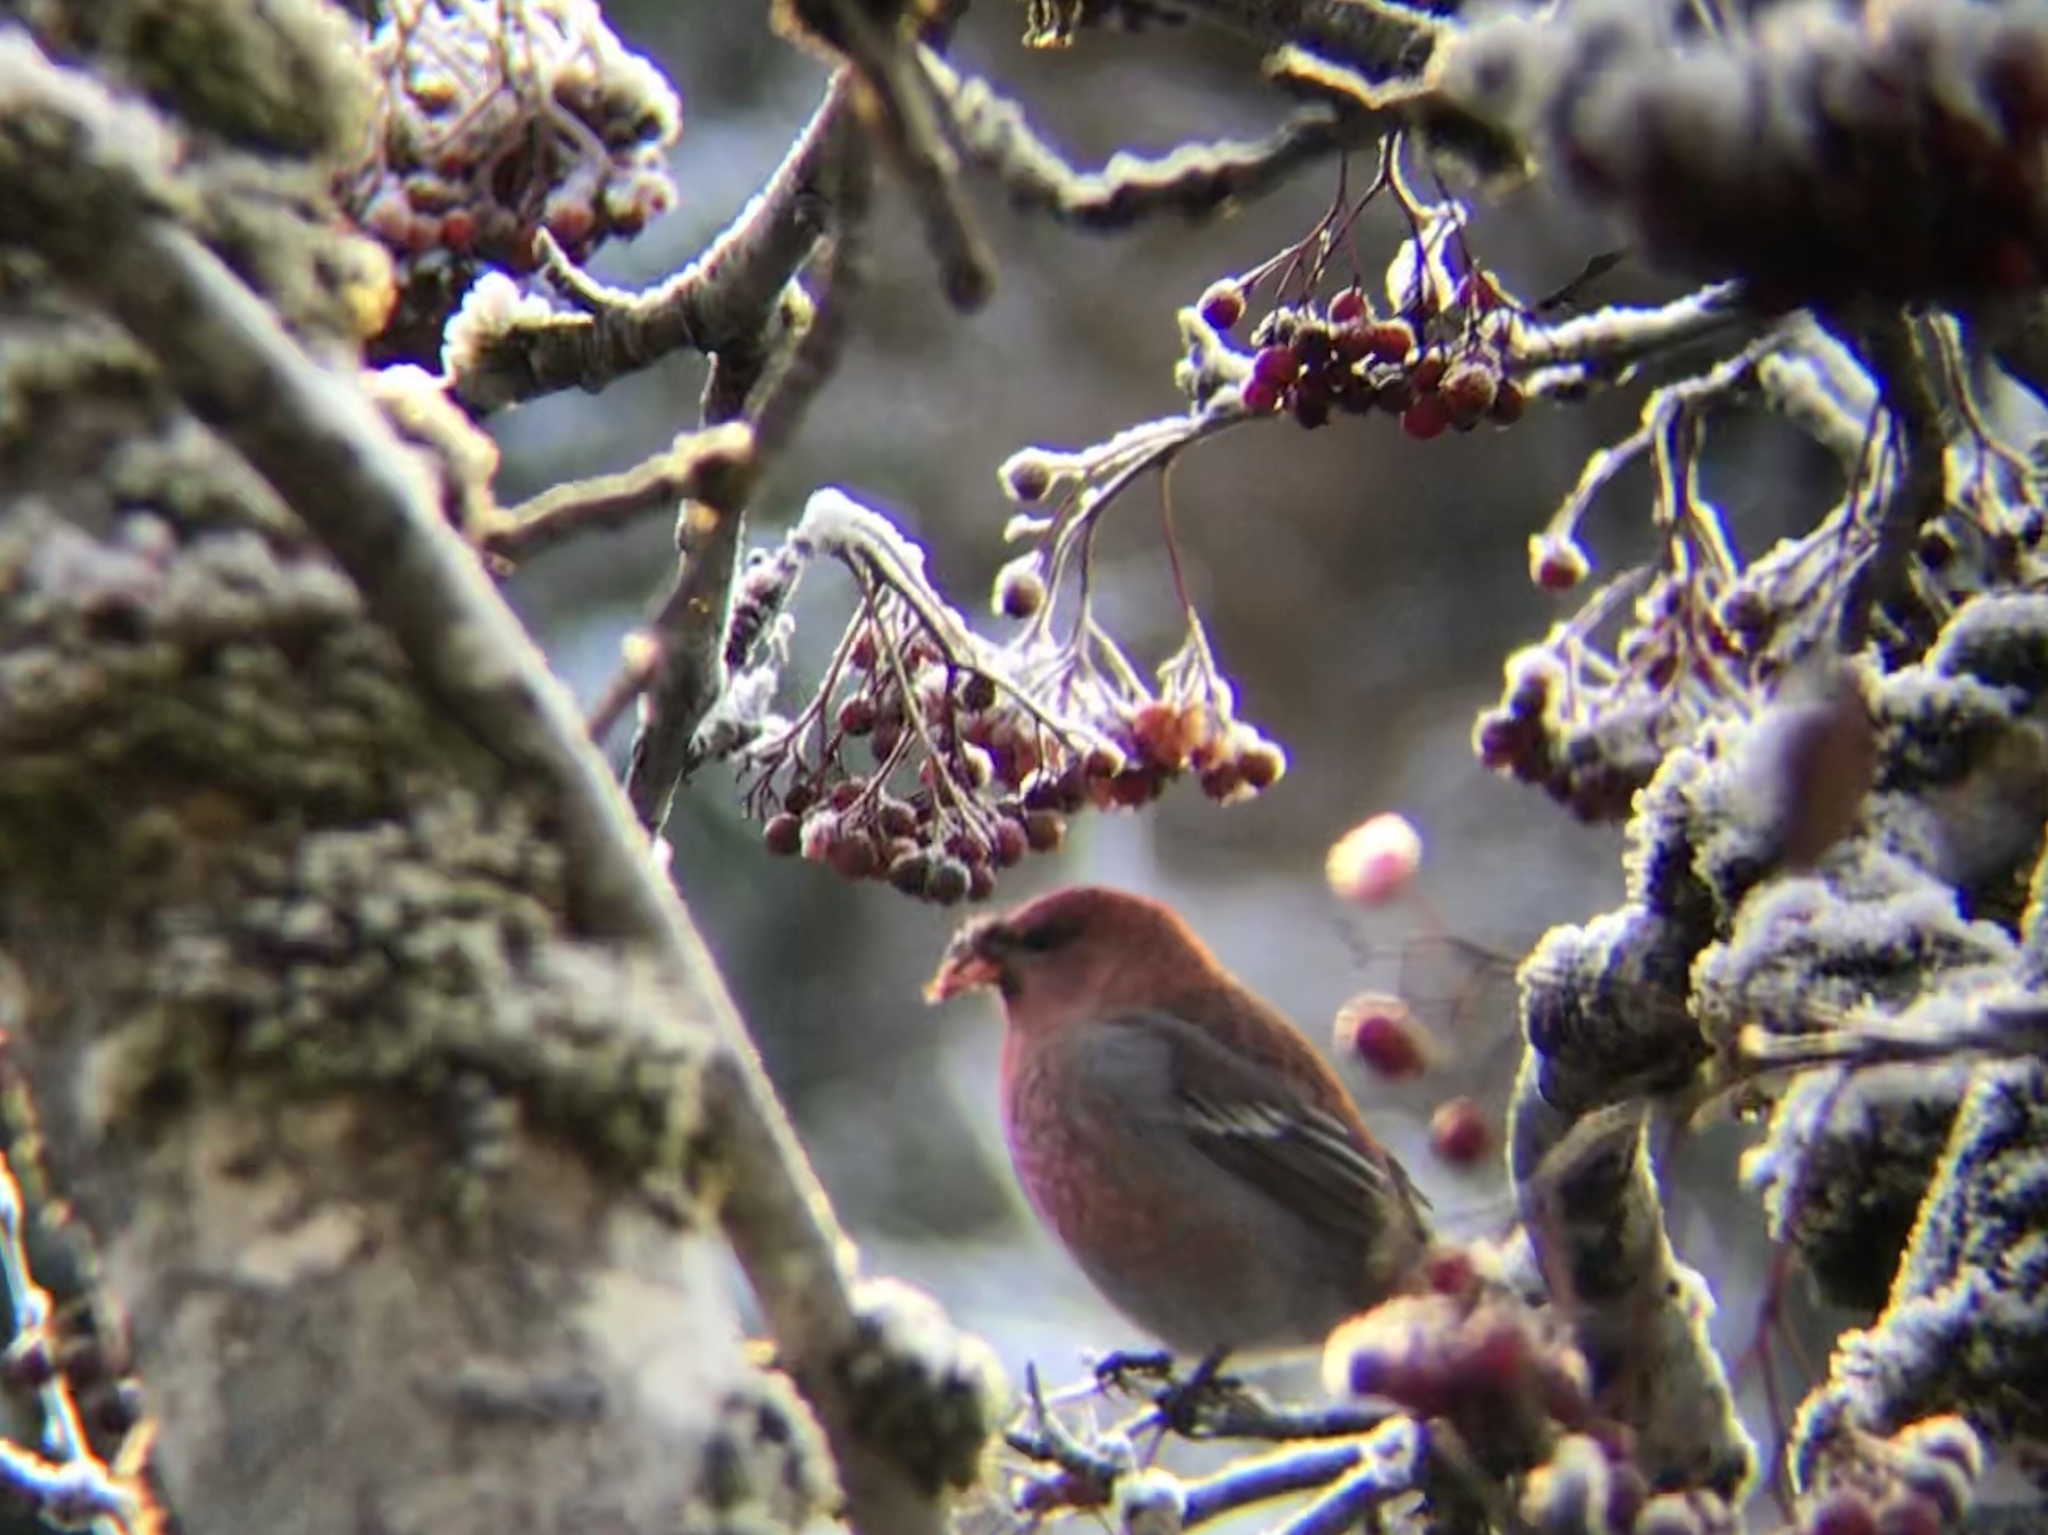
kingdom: Animalia
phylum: Chordata
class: Aves
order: Passeriformes
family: Fringillidae
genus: Pinicola
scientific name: Pinicola enucleator
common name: Pine grosbeak
